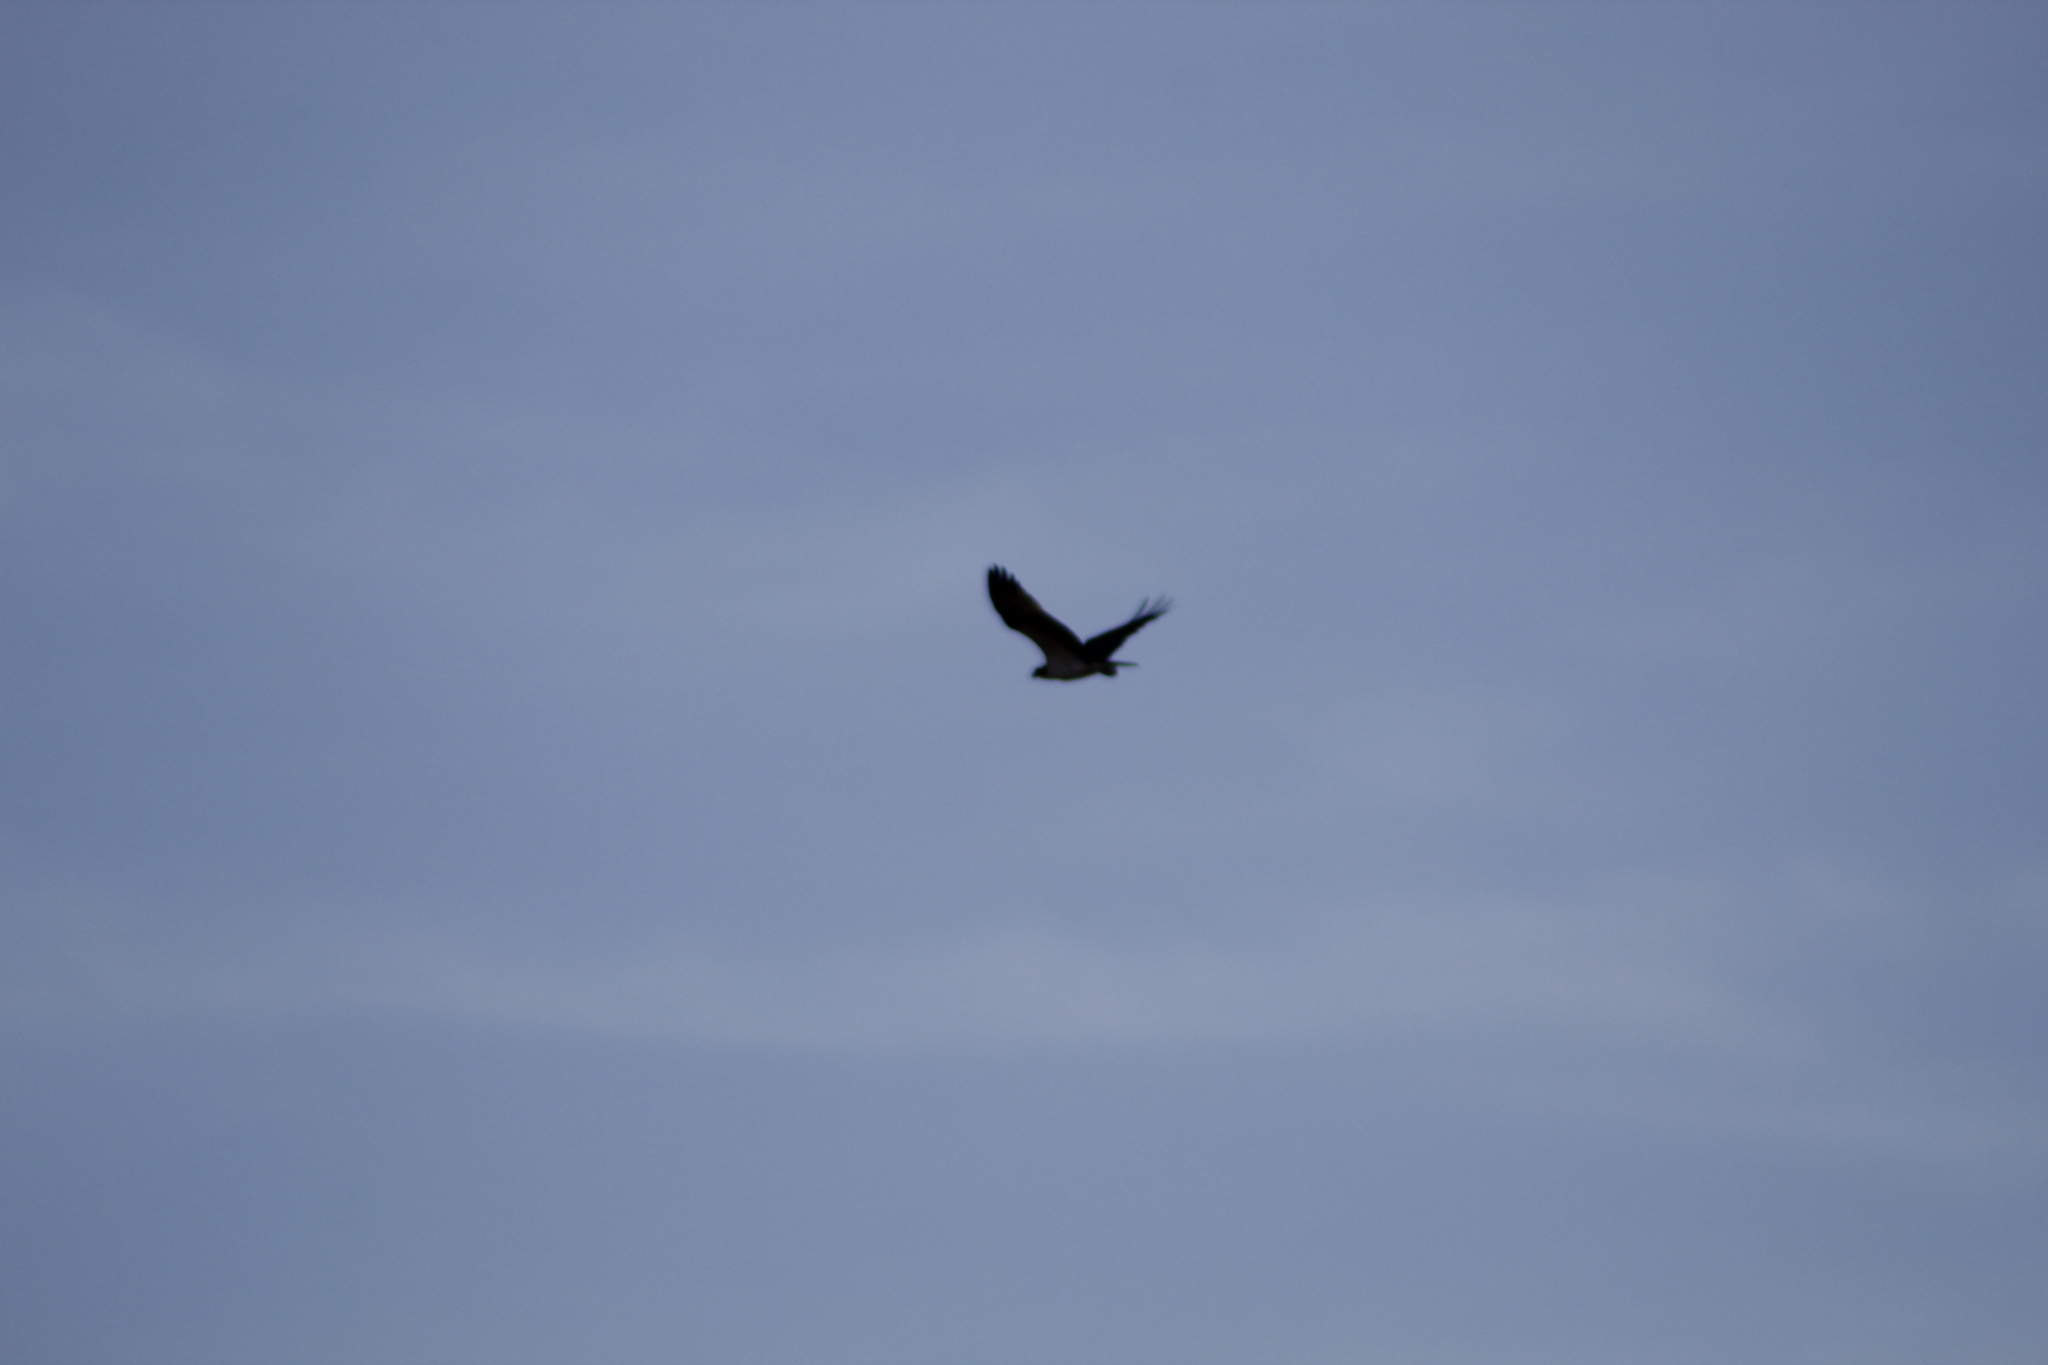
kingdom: Animalia
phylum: Chordata
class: Aves
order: Accipitriformes
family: Pandionidae
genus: Pandion
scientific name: Pandion haliaetus
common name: Osprey
